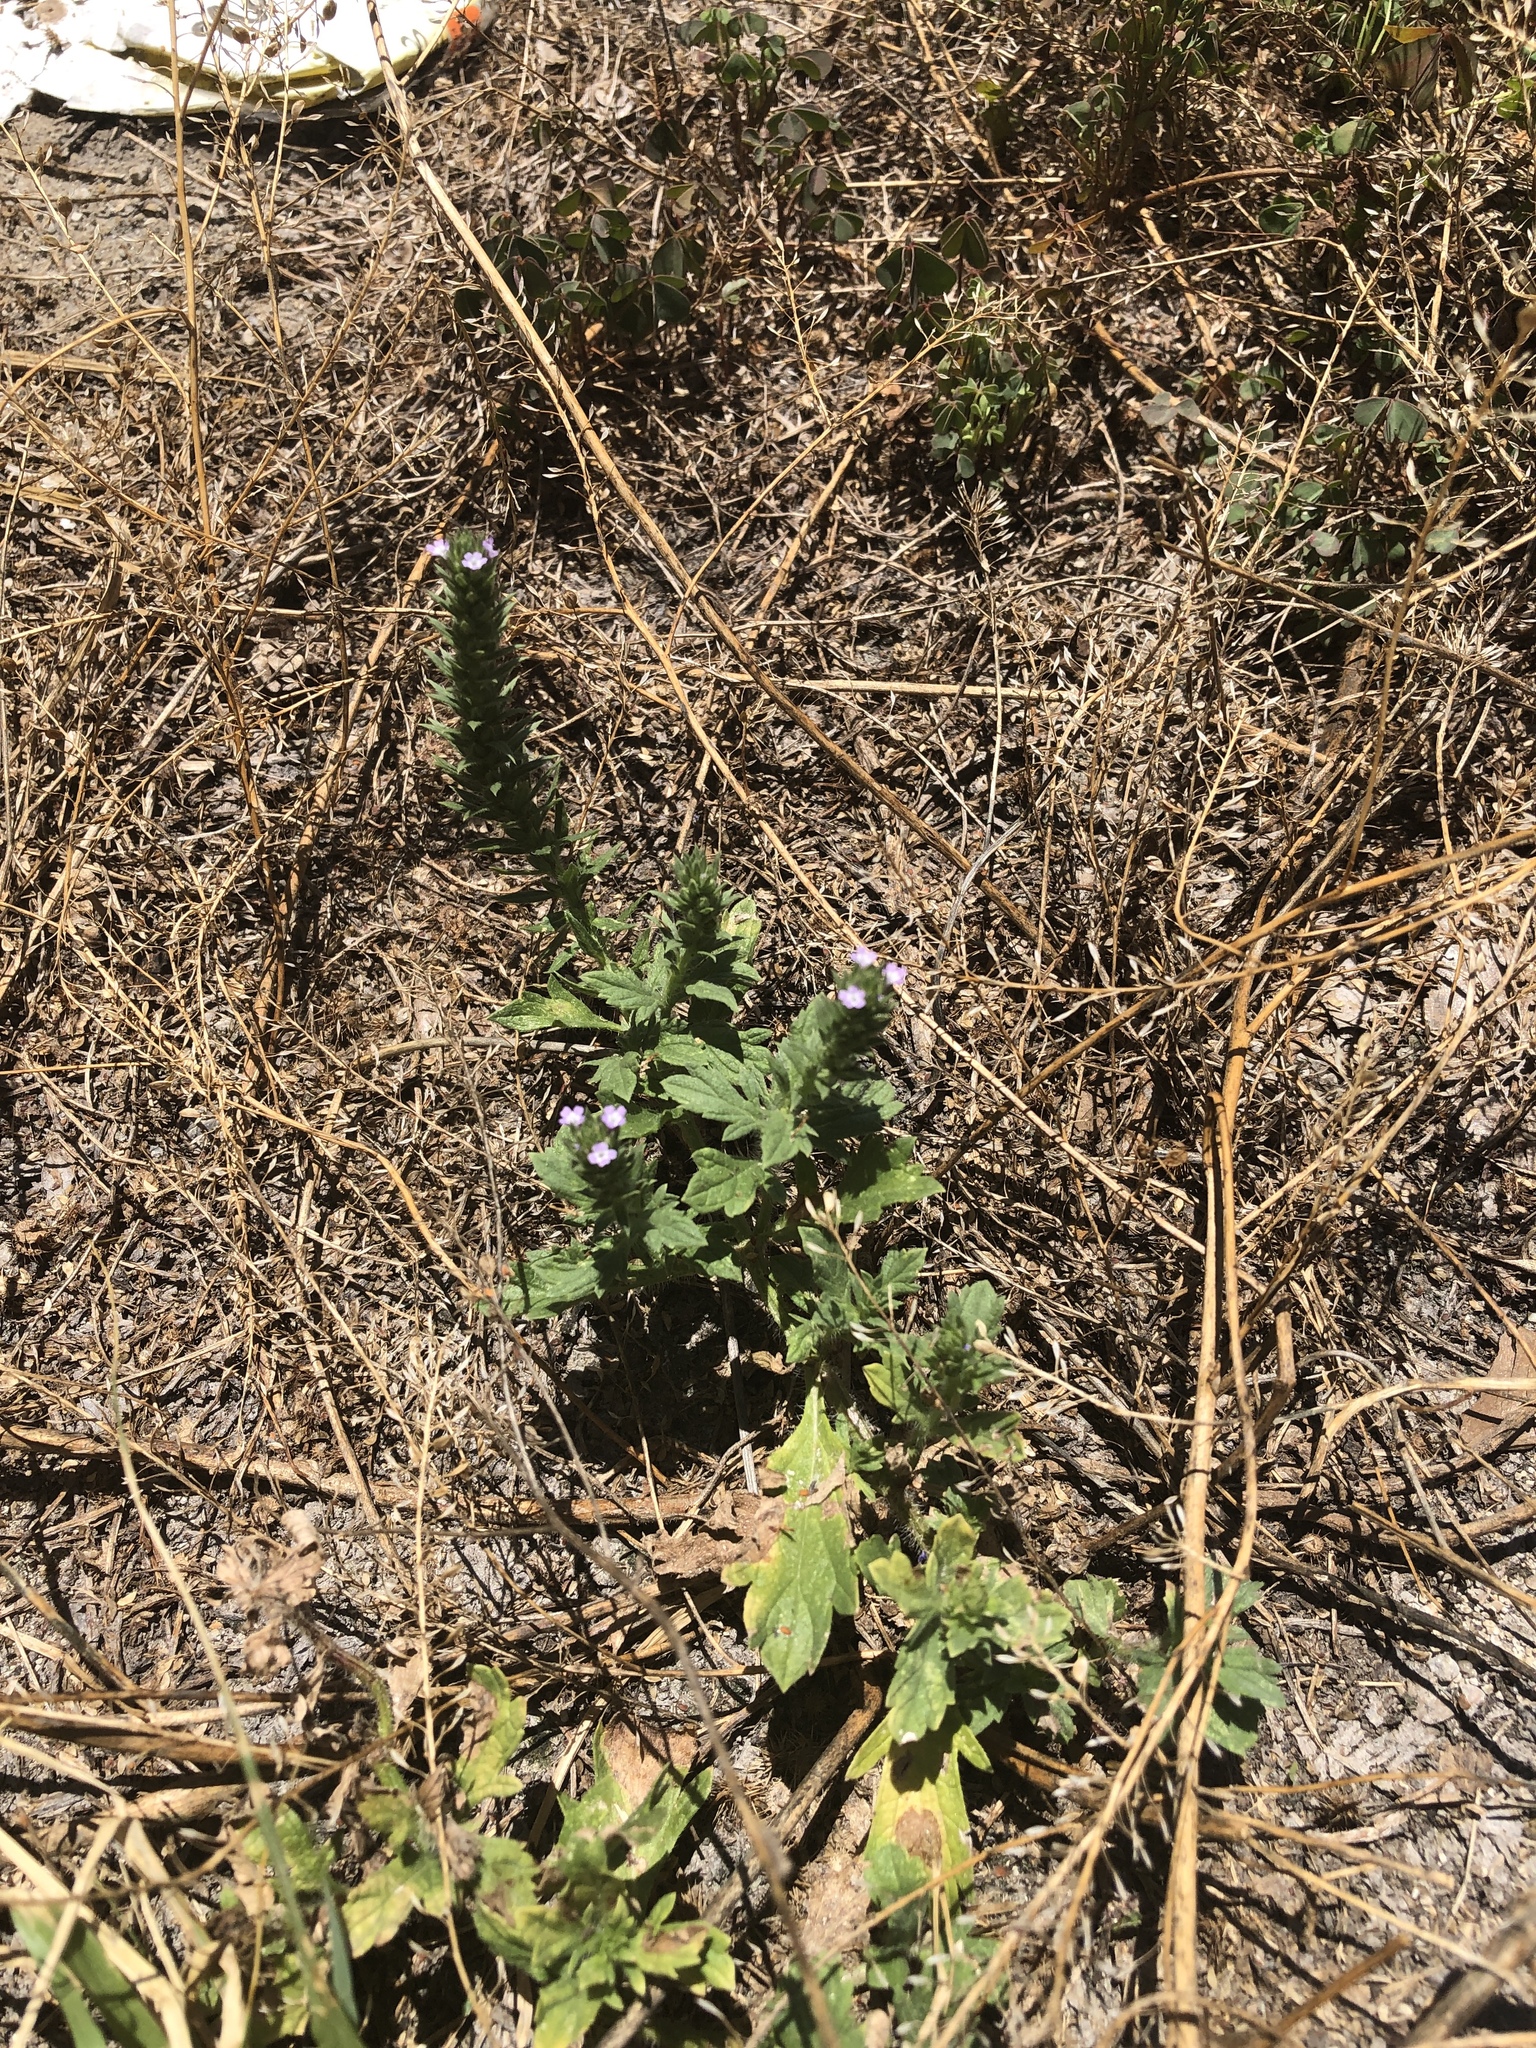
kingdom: Plantae
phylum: Tracheophyta
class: Magnoliopsida
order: Lamiales
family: Verbenaceae
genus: Verbena
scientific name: Verbena bracteata
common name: Bracted vervain
